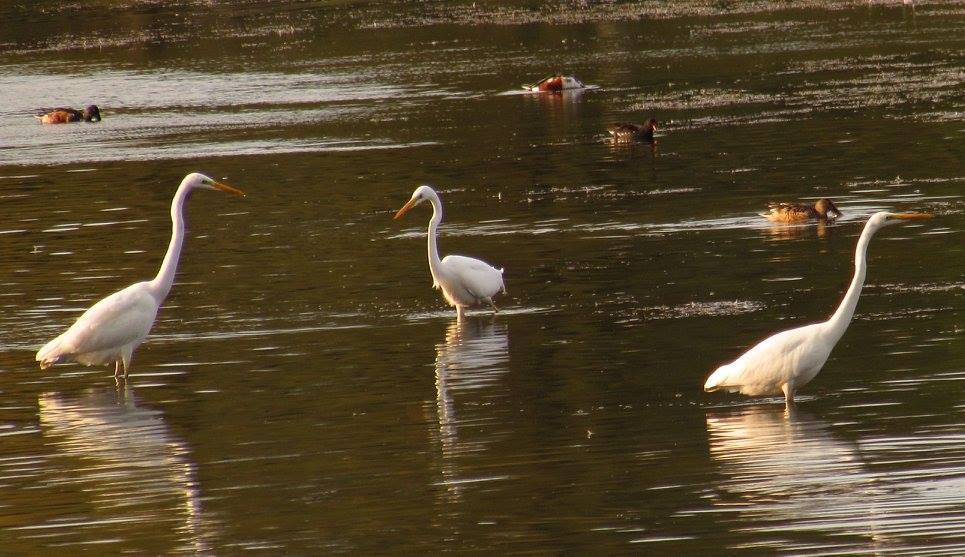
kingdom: Animalia
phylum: Chordata
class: Aves
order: Pelecaniformes
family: Ardeidae
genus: Ardea
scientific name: Ardea alba
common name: Great egret
